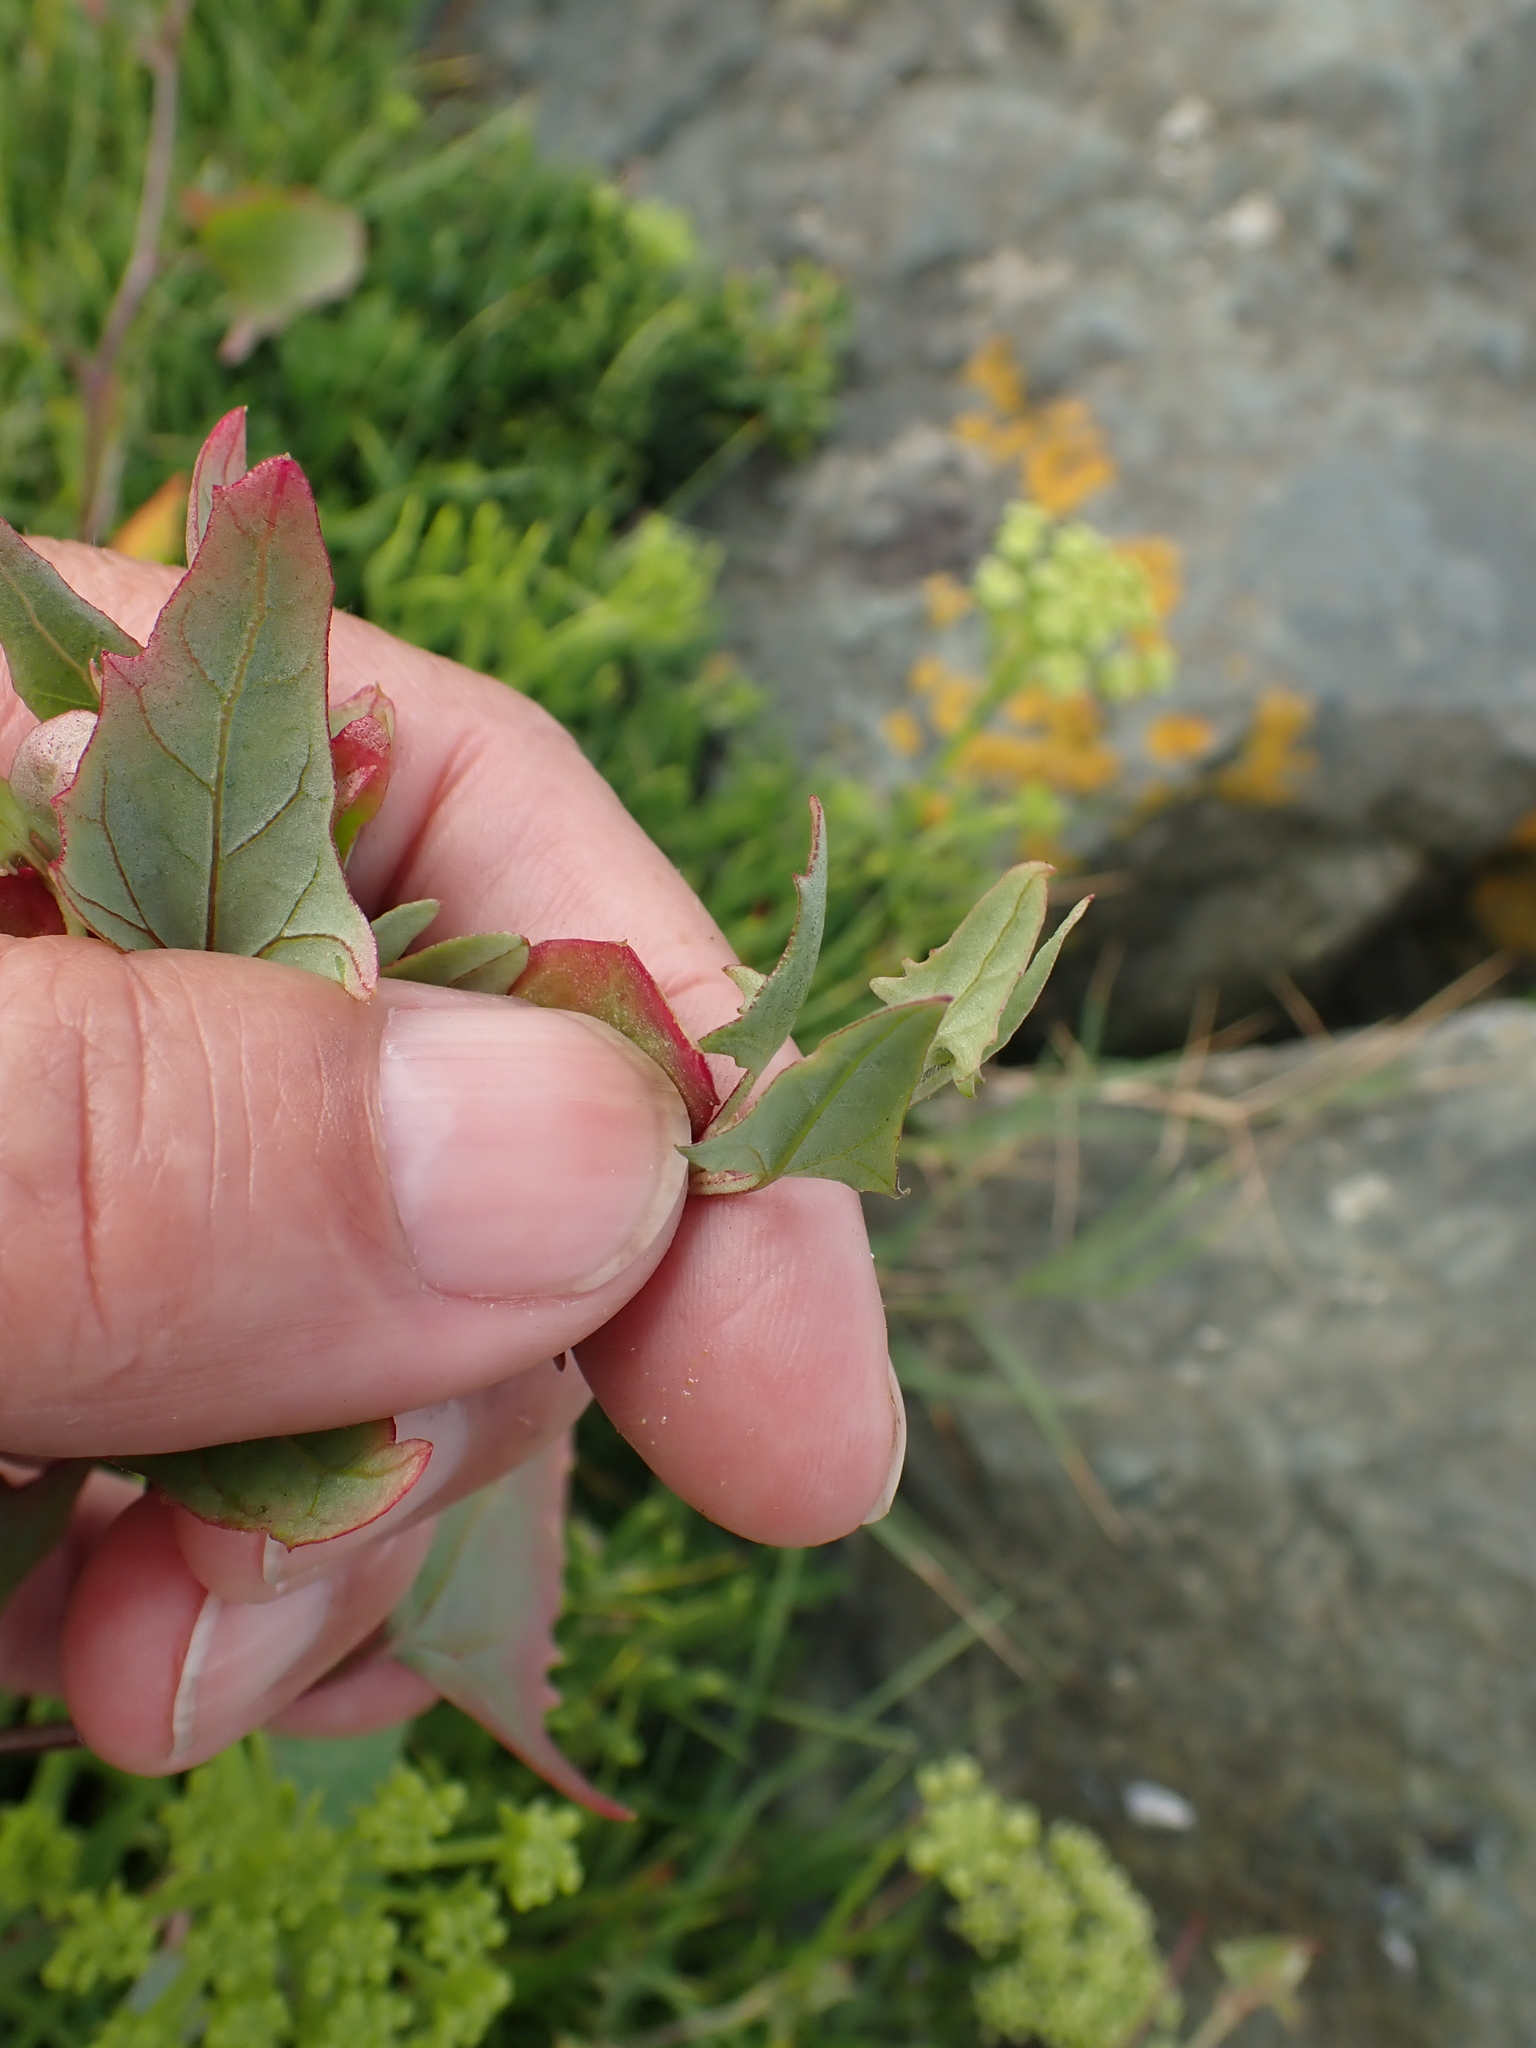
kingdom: Plantae
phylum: Tracheophyta
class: Magnoliopsida
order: Caryophyllales
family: Amaranthaceae
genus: Atriplex
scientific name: Atriplex prostrata
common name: Spear-leaved orache
